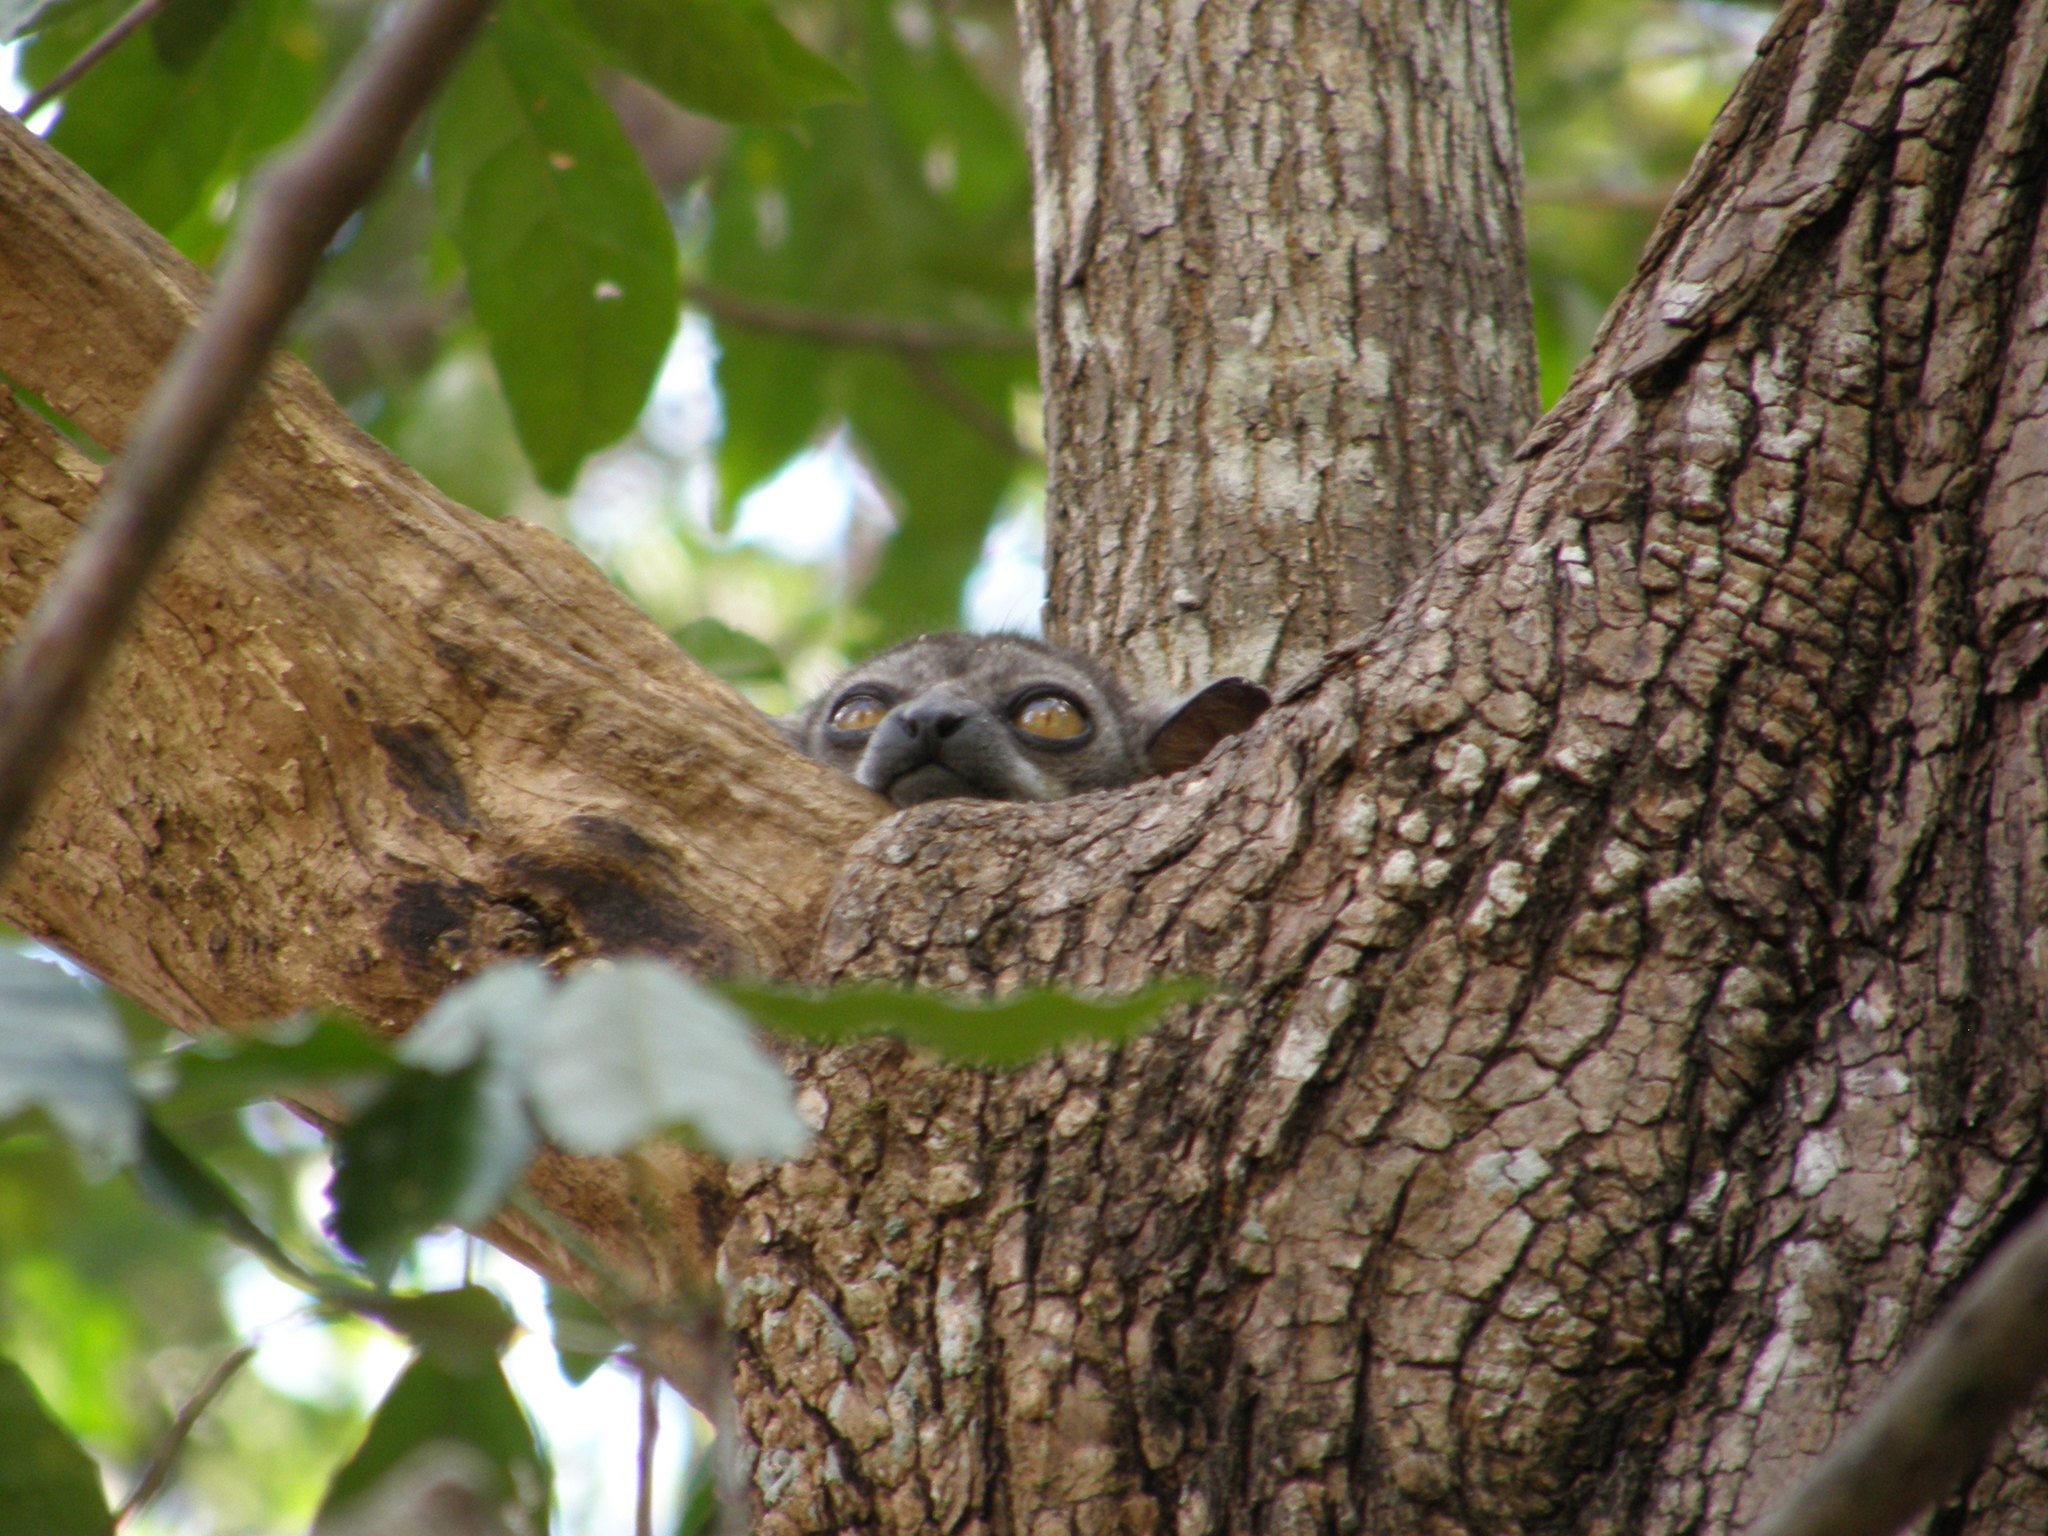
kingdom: Animalia
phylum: Chordata
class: Mammalia
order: Primates
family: Lepilemuridae
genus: Lepilemur
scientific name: Lepilemur randrianasoloi
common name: Bemaraha sportive lemur
